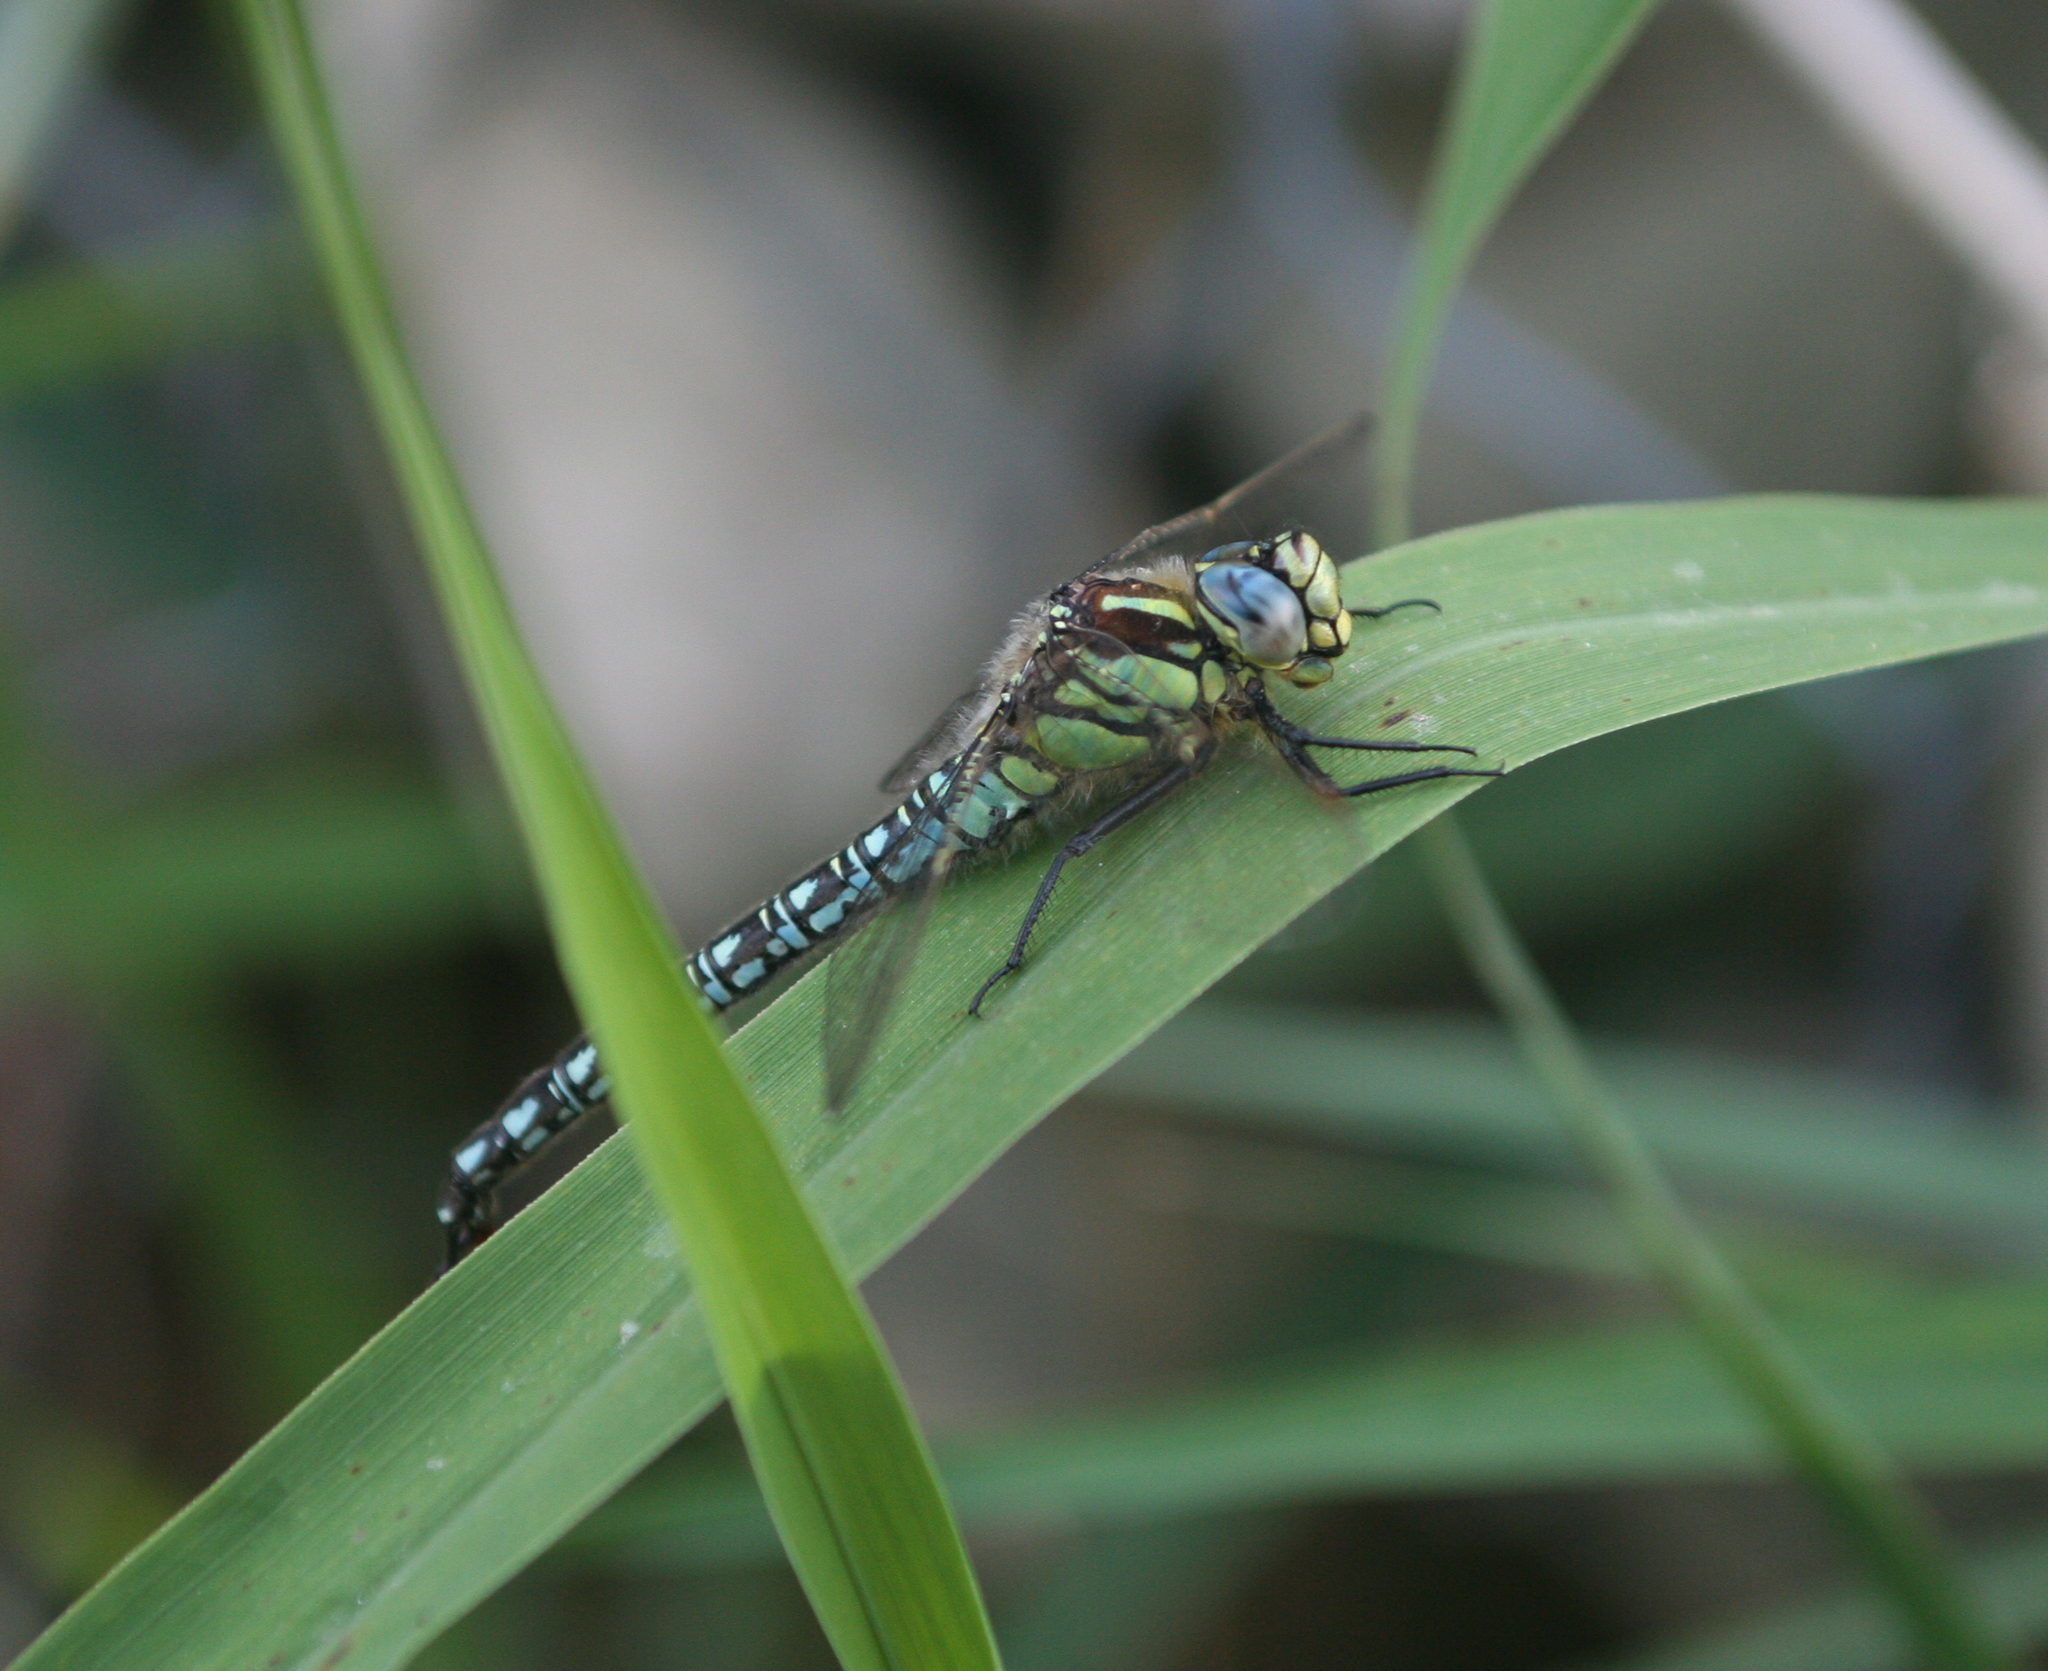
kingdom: Animalia
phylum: Arthropoda
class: Insecta
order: Odonata
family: Aeshnidae
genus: Brachytron
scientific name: Brachytron pratense
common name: Hairy hawker
